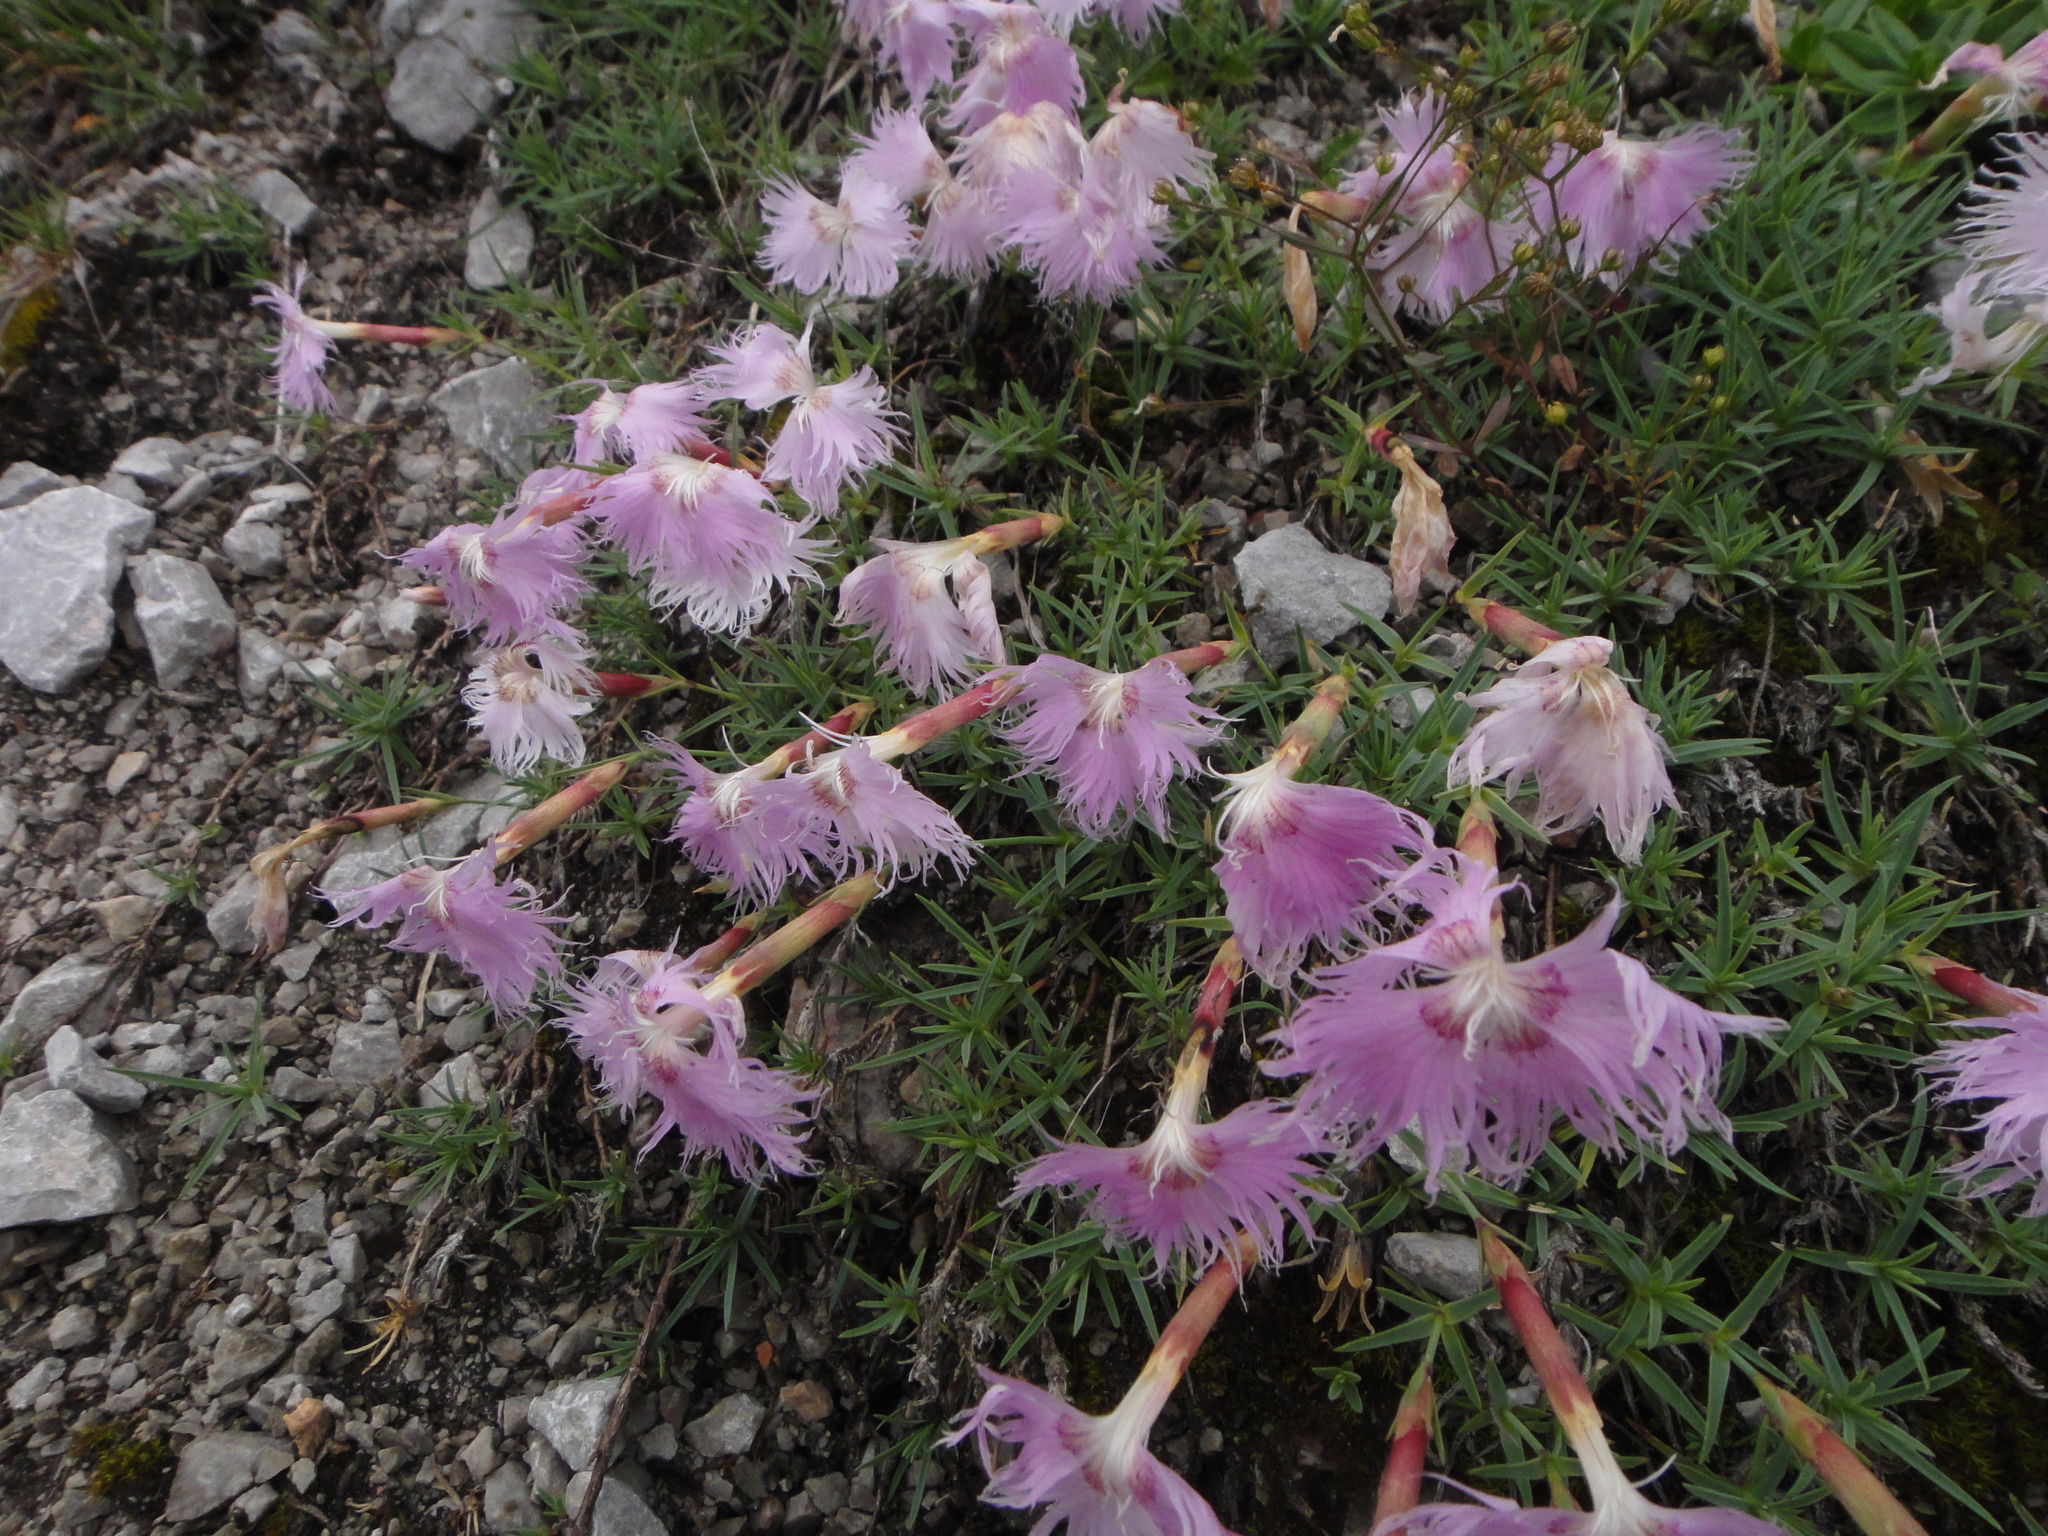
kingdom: Plantae
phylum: Tracheophyta
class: Magnoliopsida
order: Caryophyllales
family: Caryophyllaceae
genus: Dianthus
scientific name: Dianthus sternbergii
